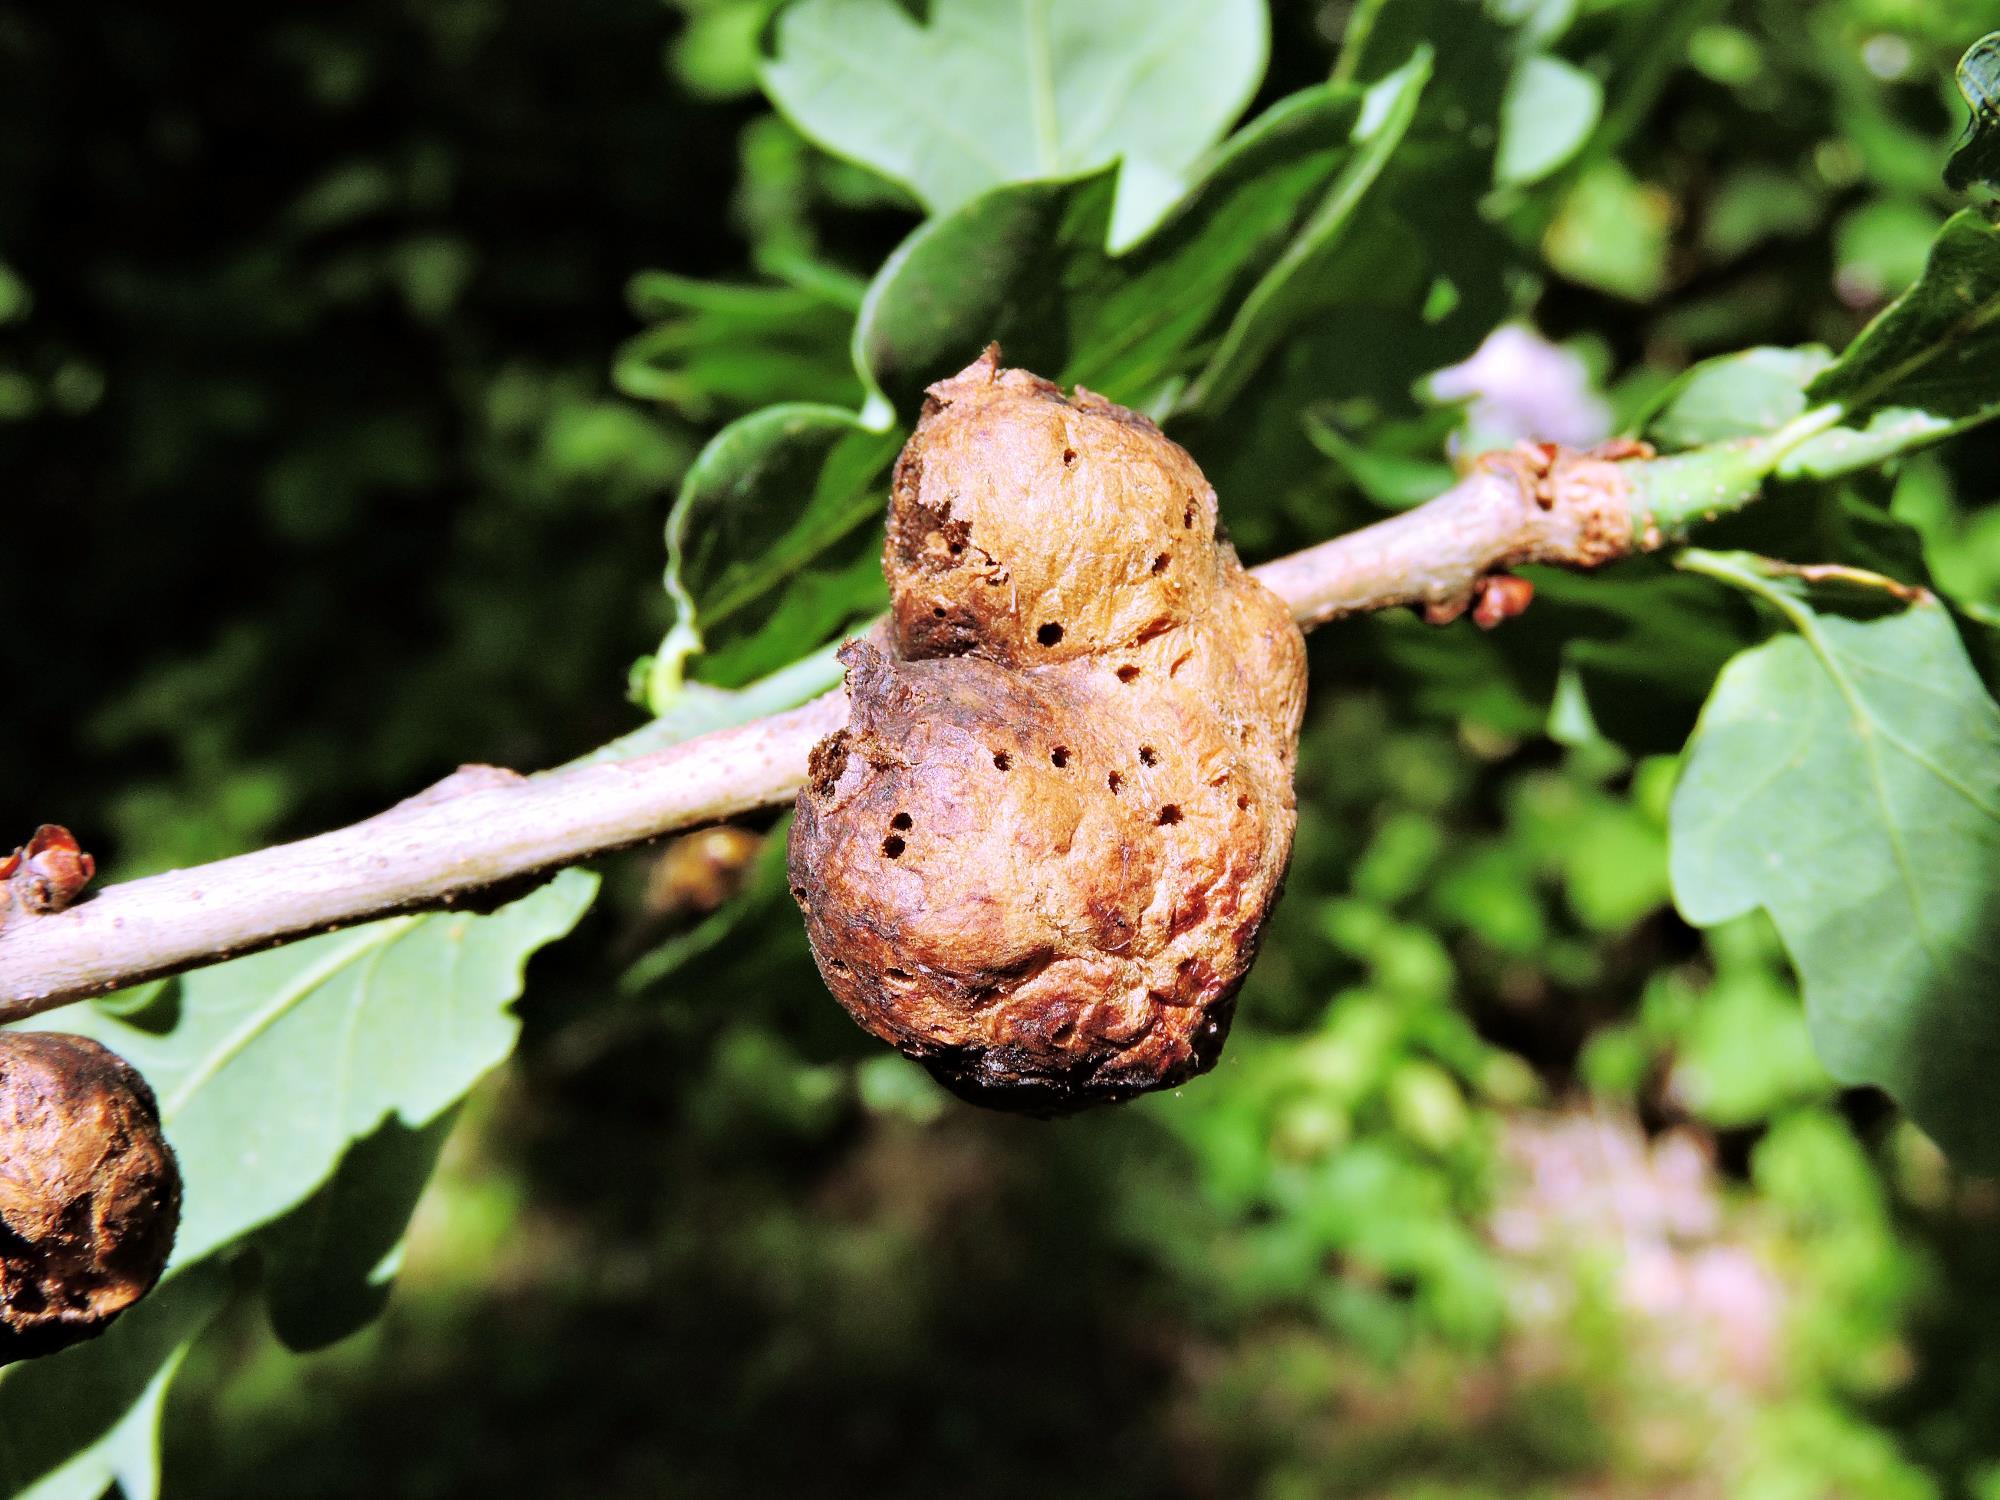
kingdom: Animalia
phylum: Arthropoda
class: Insecta
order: Hymenoptera
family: Cynipidae
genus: Biorhiza
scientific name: Biorhiza pallida
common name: Oak apple
